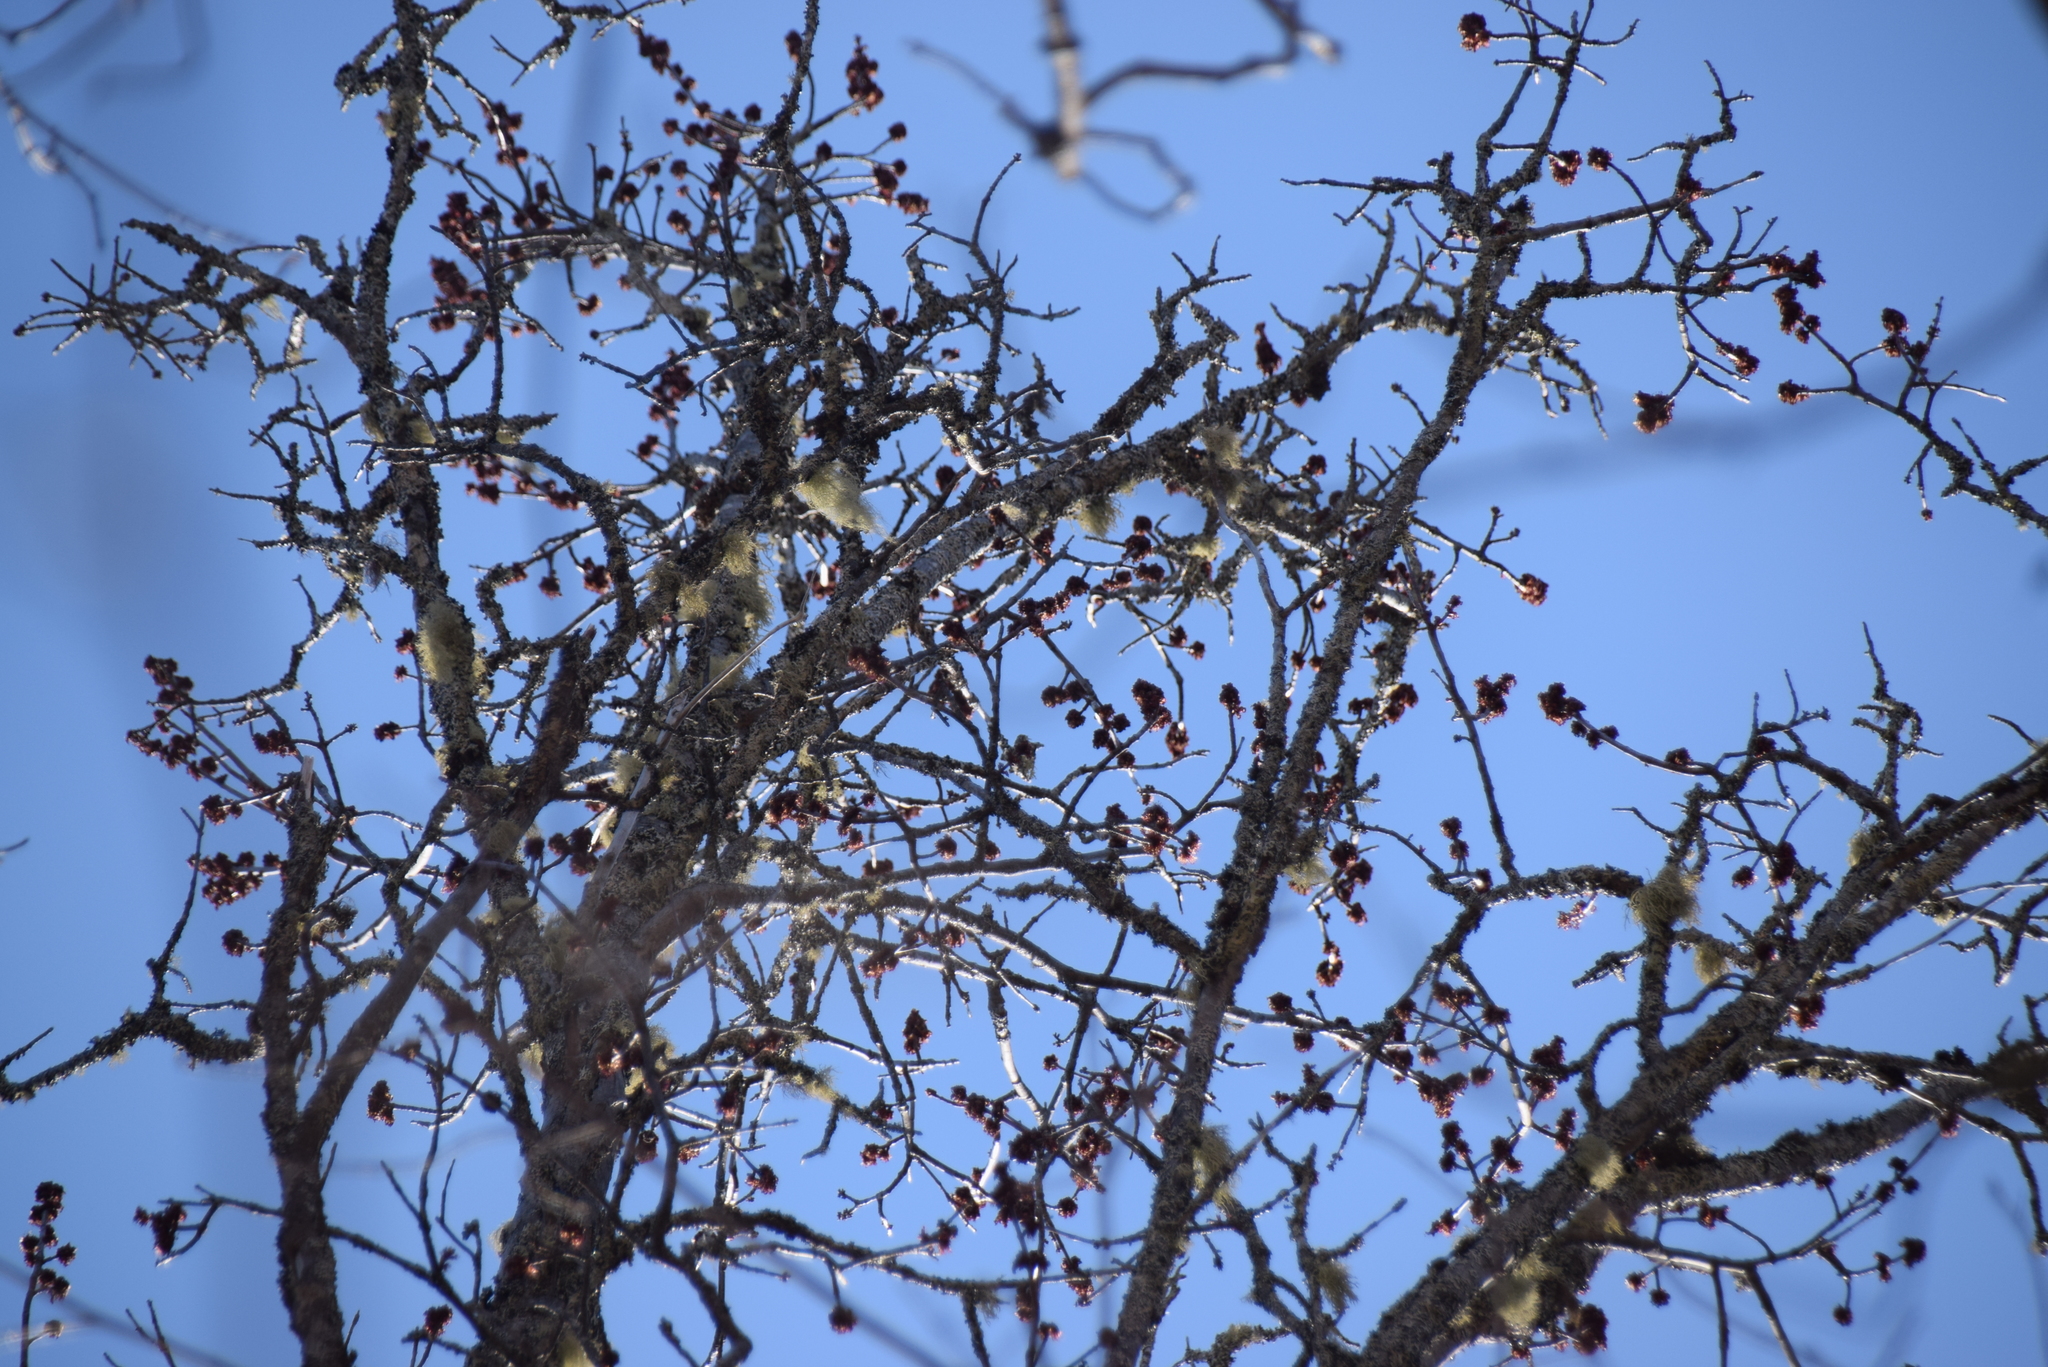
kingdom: Plantae
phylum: Tracheophyta
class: Magnoliopsida
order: Sapindales
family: Sapindaceae
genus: Acer
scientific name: Acer rubrum
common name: Red maple
